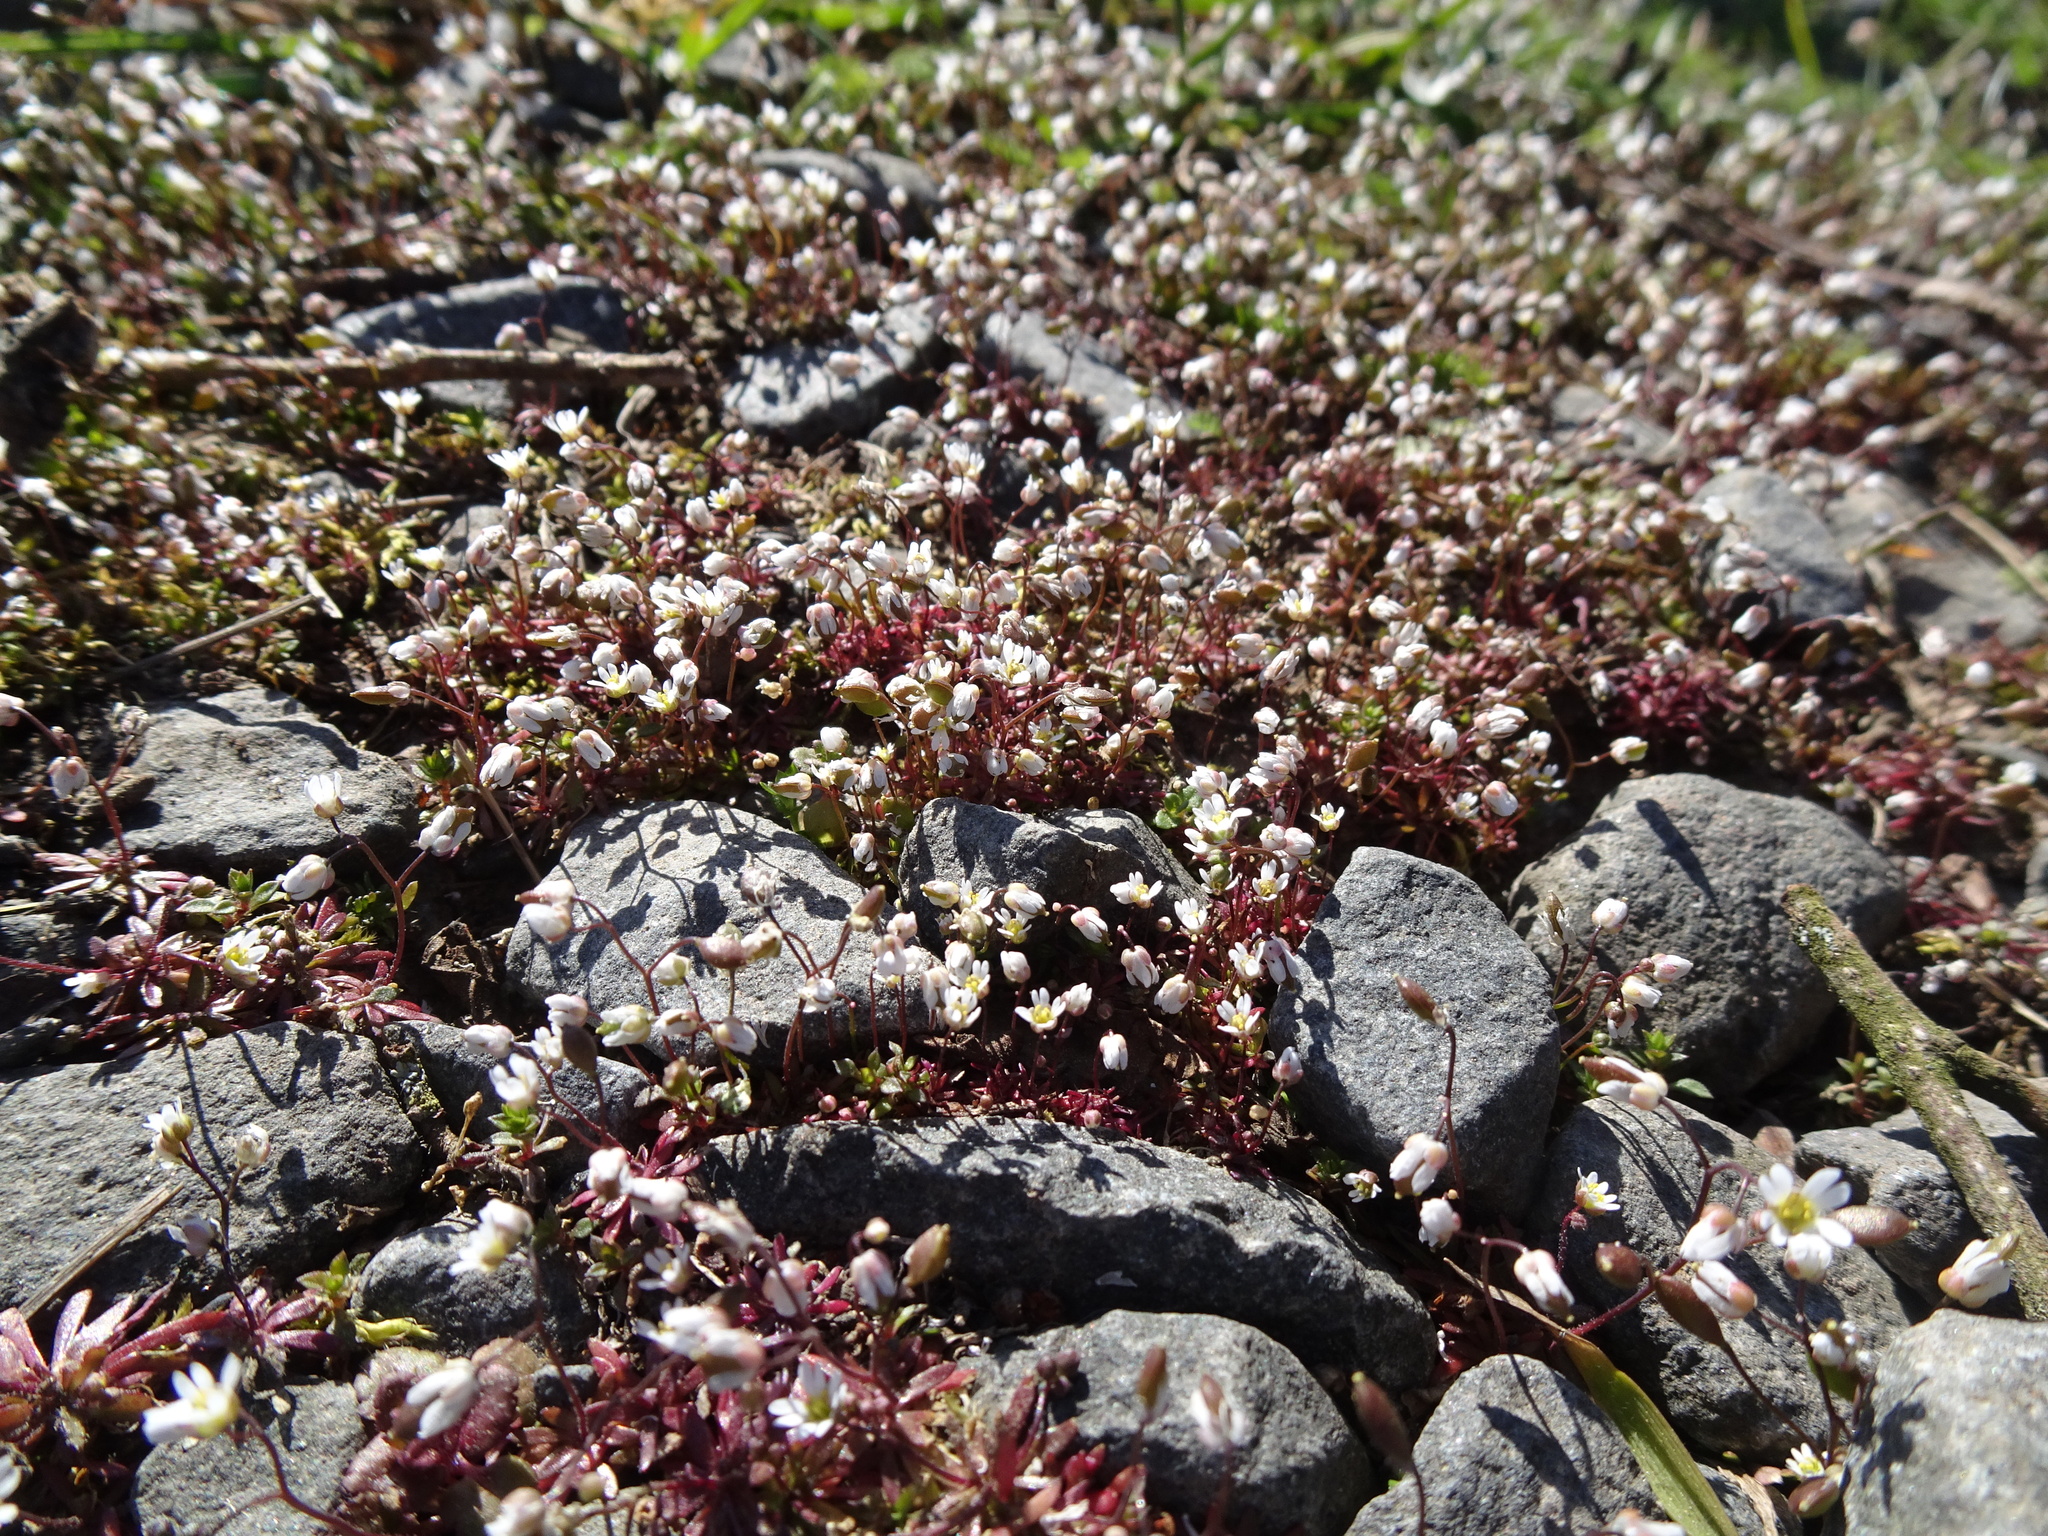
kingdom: Plantae
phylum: Tracheophyta
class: Magnoliopsida
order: Brassicales
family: Brassicaceae
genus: Draba
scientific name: Draba verna
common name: Spring draba
